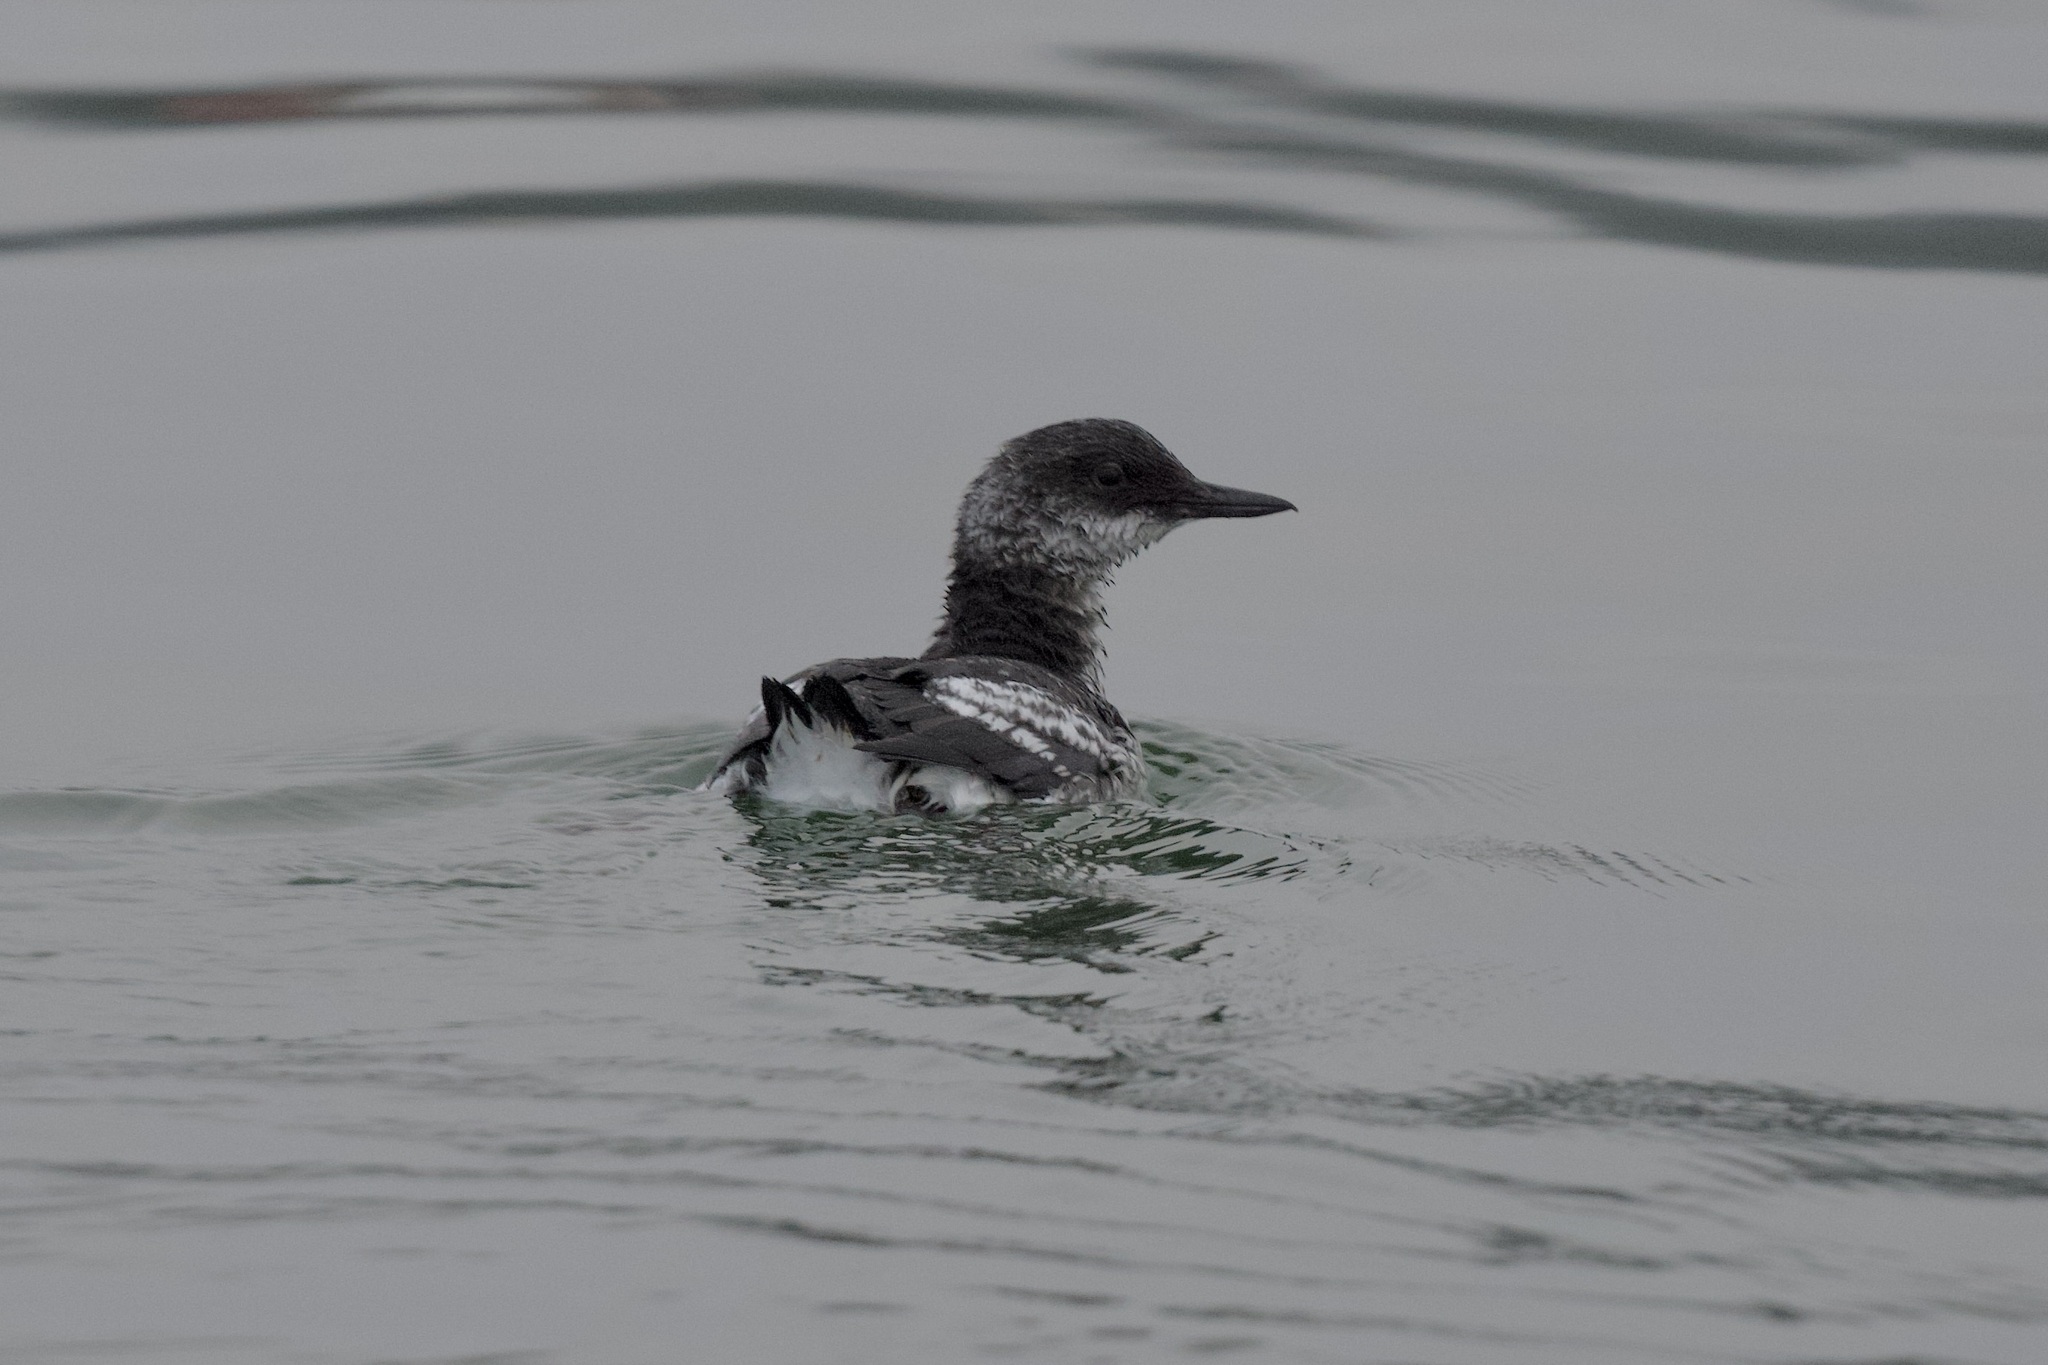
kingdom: Animalia
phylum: Chordata
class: Aves
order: Charadriiformes
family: Alcidae
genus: Cepphus
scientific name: Cepphus columba
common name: Pigeon guillemot
